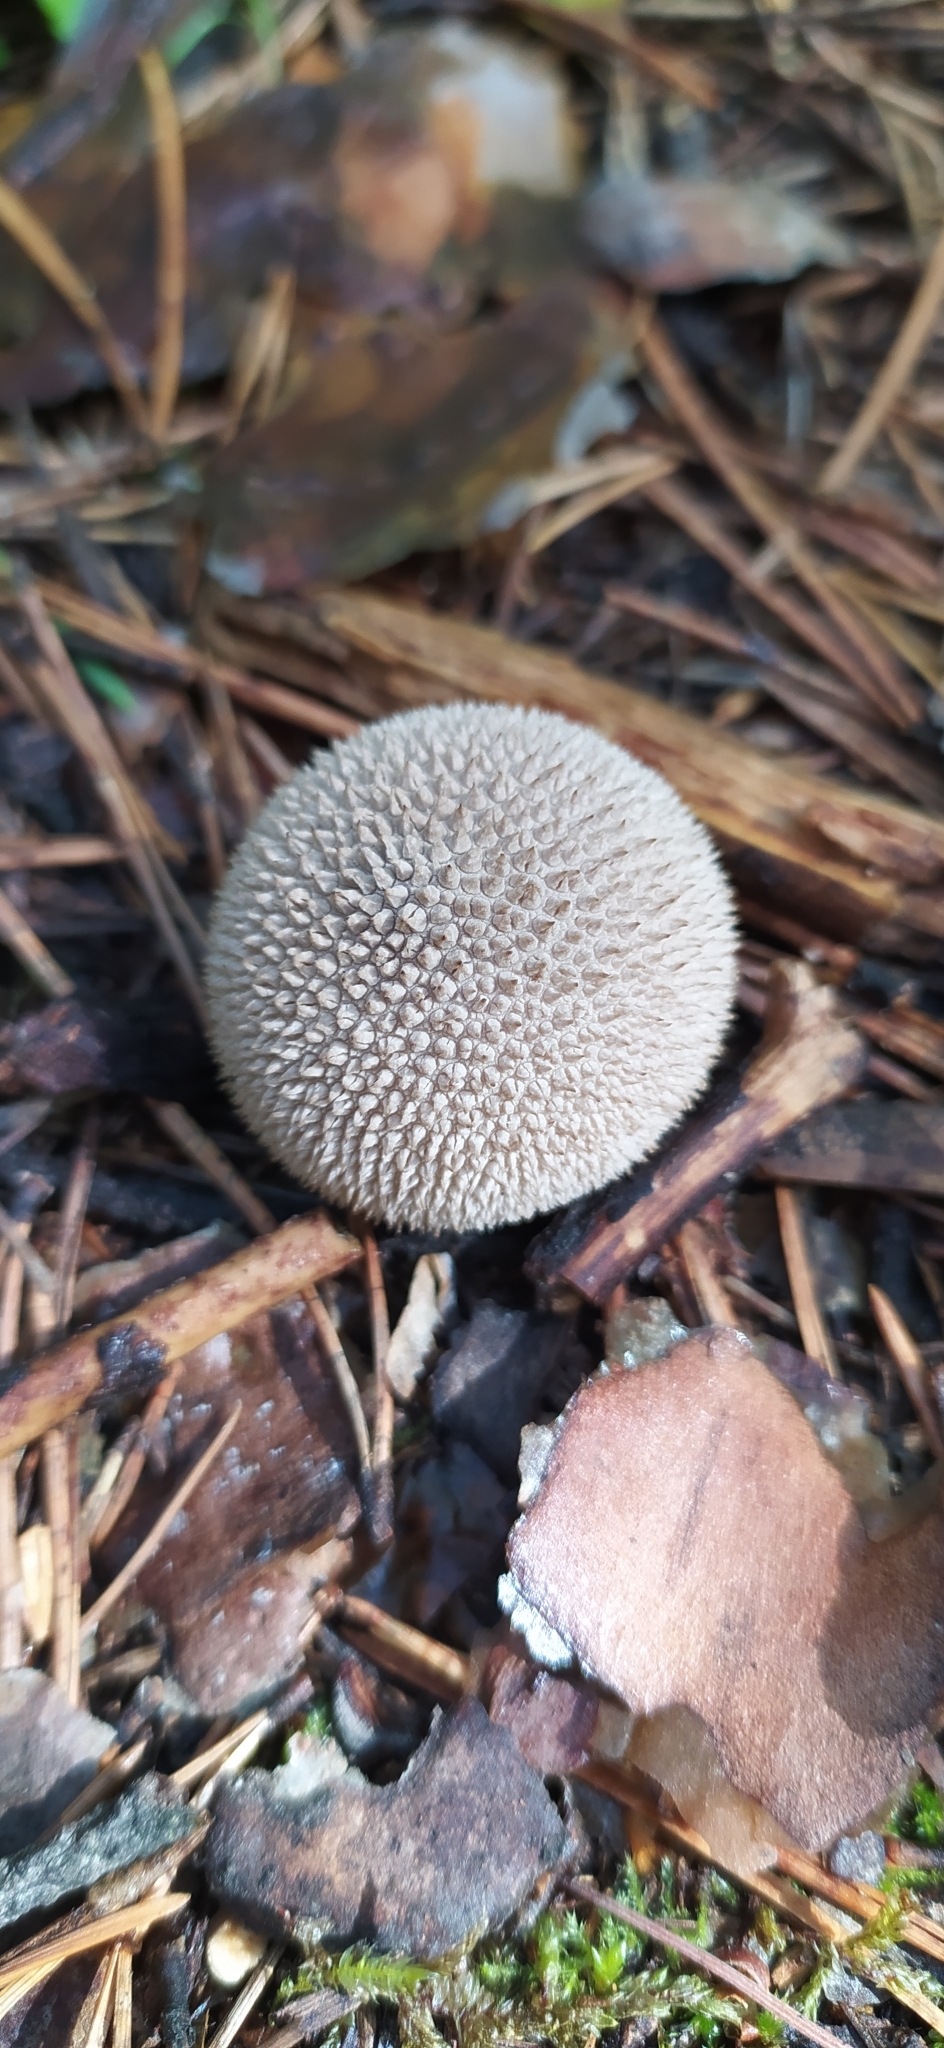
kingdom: Fungi
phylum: Basidiomycota
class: Agaricomycetes
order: Agaricales
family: Lycoperdaceae
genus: Lycoperdon
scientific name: Lycoperdon perlatum
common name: Common puffball
